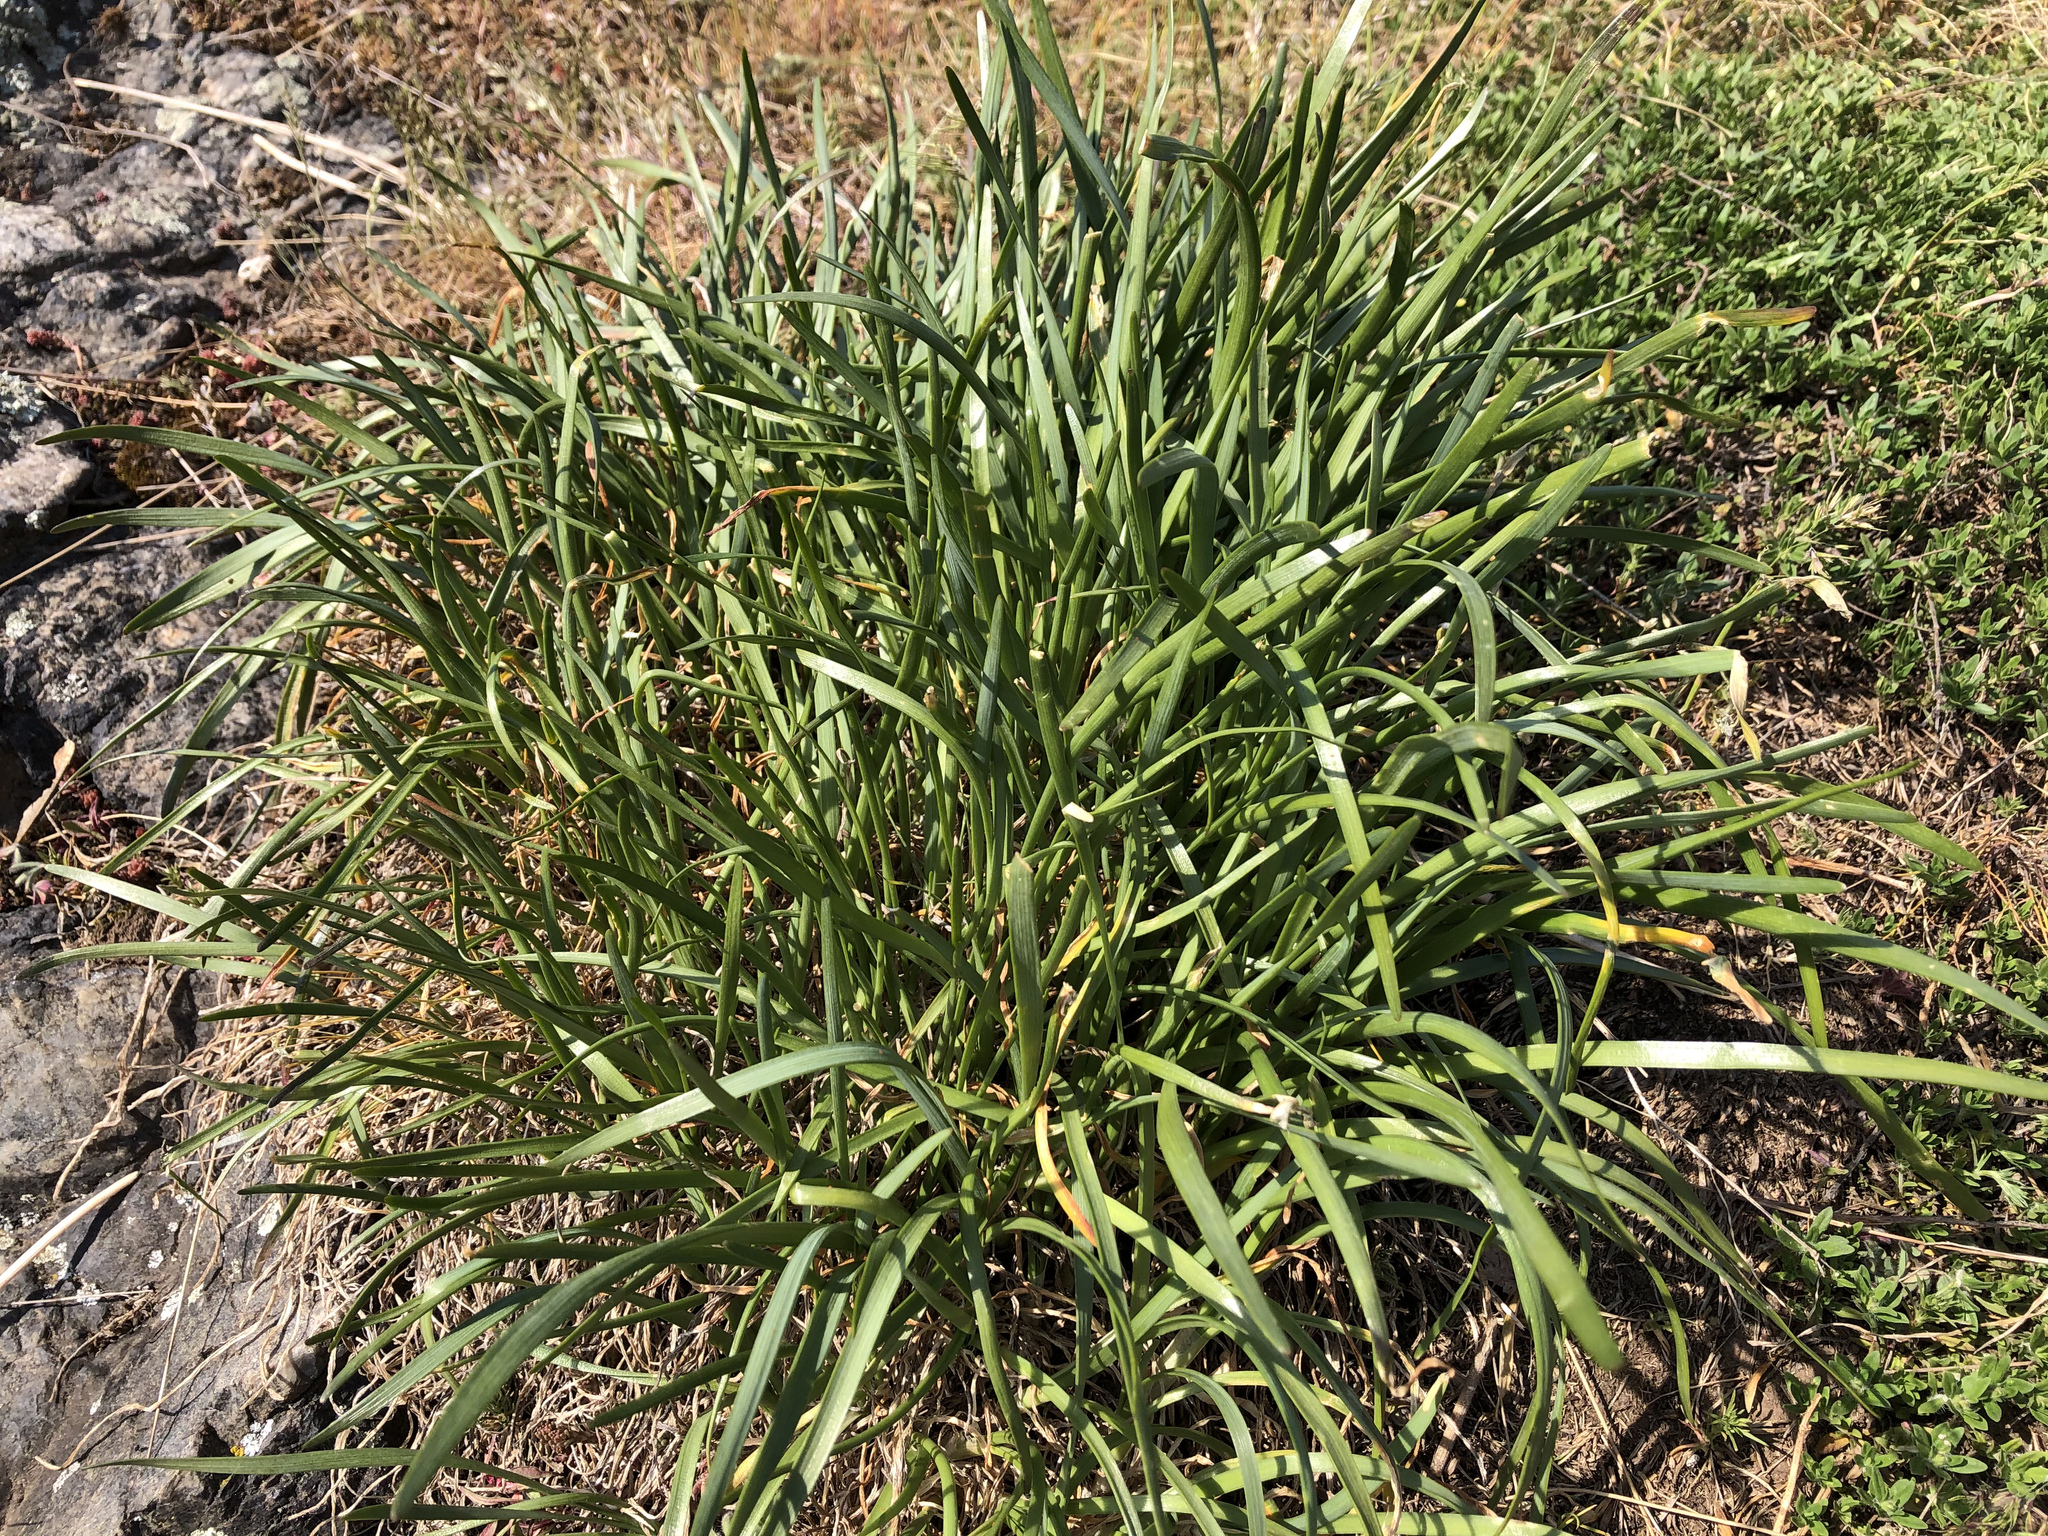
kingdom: Plantae
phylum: Tracheophyta
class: Liliopsida
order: Asparagales
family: Amaryllidaceae
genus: Allium
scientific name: Allium lusitanicum
